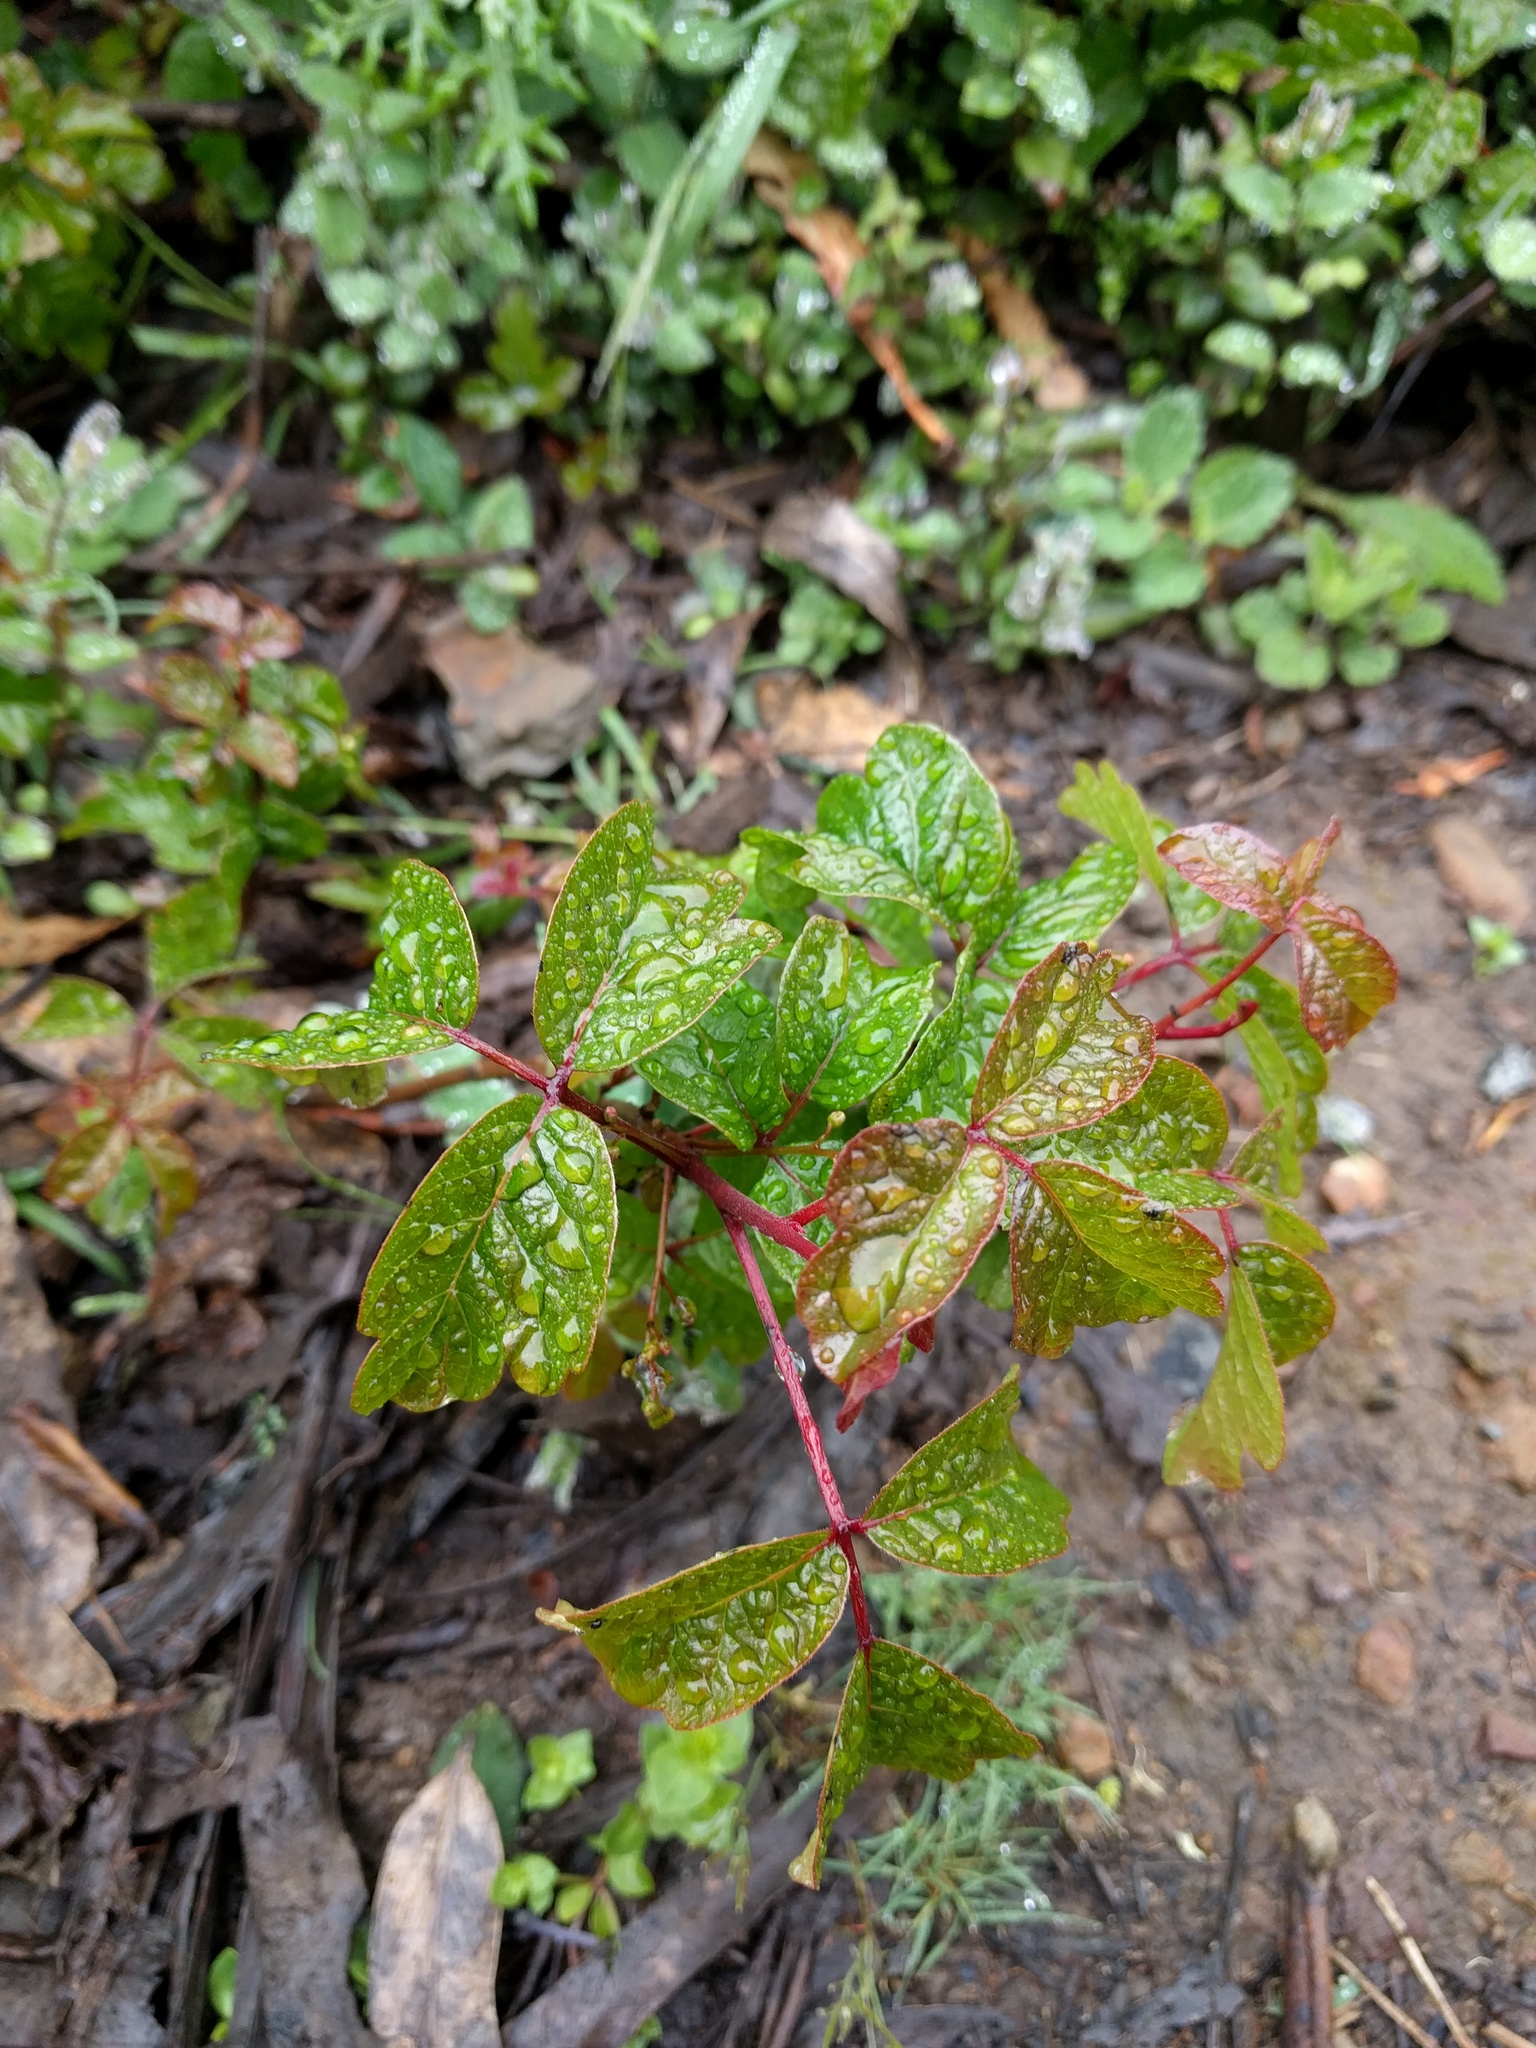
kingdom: Plantae
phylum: Tracheophyta
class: Magnoliopsida
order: Sapindales
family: Anacardiaceae
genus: Toxicodendron
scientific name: Toxicodendron diversilobum
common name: Pacific poison-oak
